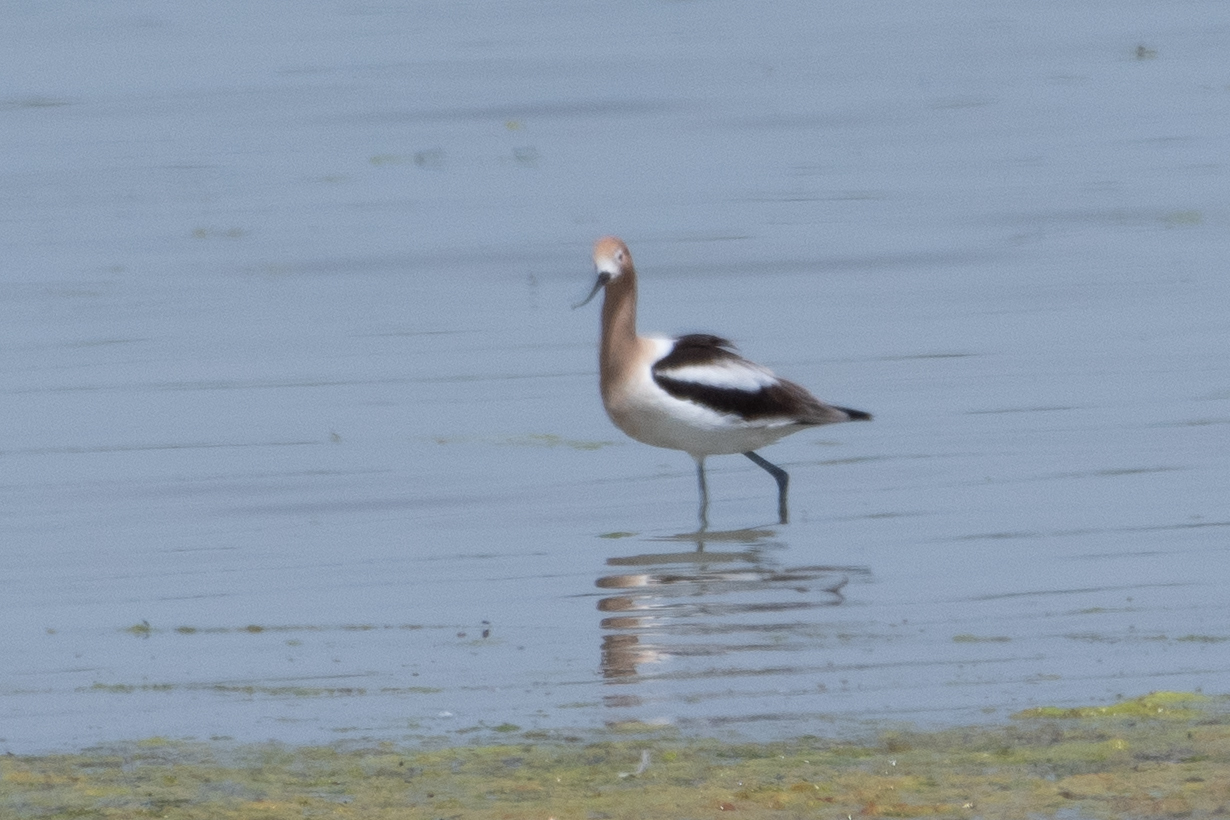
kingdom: Animalia
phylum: Chordata
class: Aves
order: Charadriiformes
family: Recurvirostridae
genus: Recurvirostra
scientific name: Recurvirostra americana
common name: American avocet
